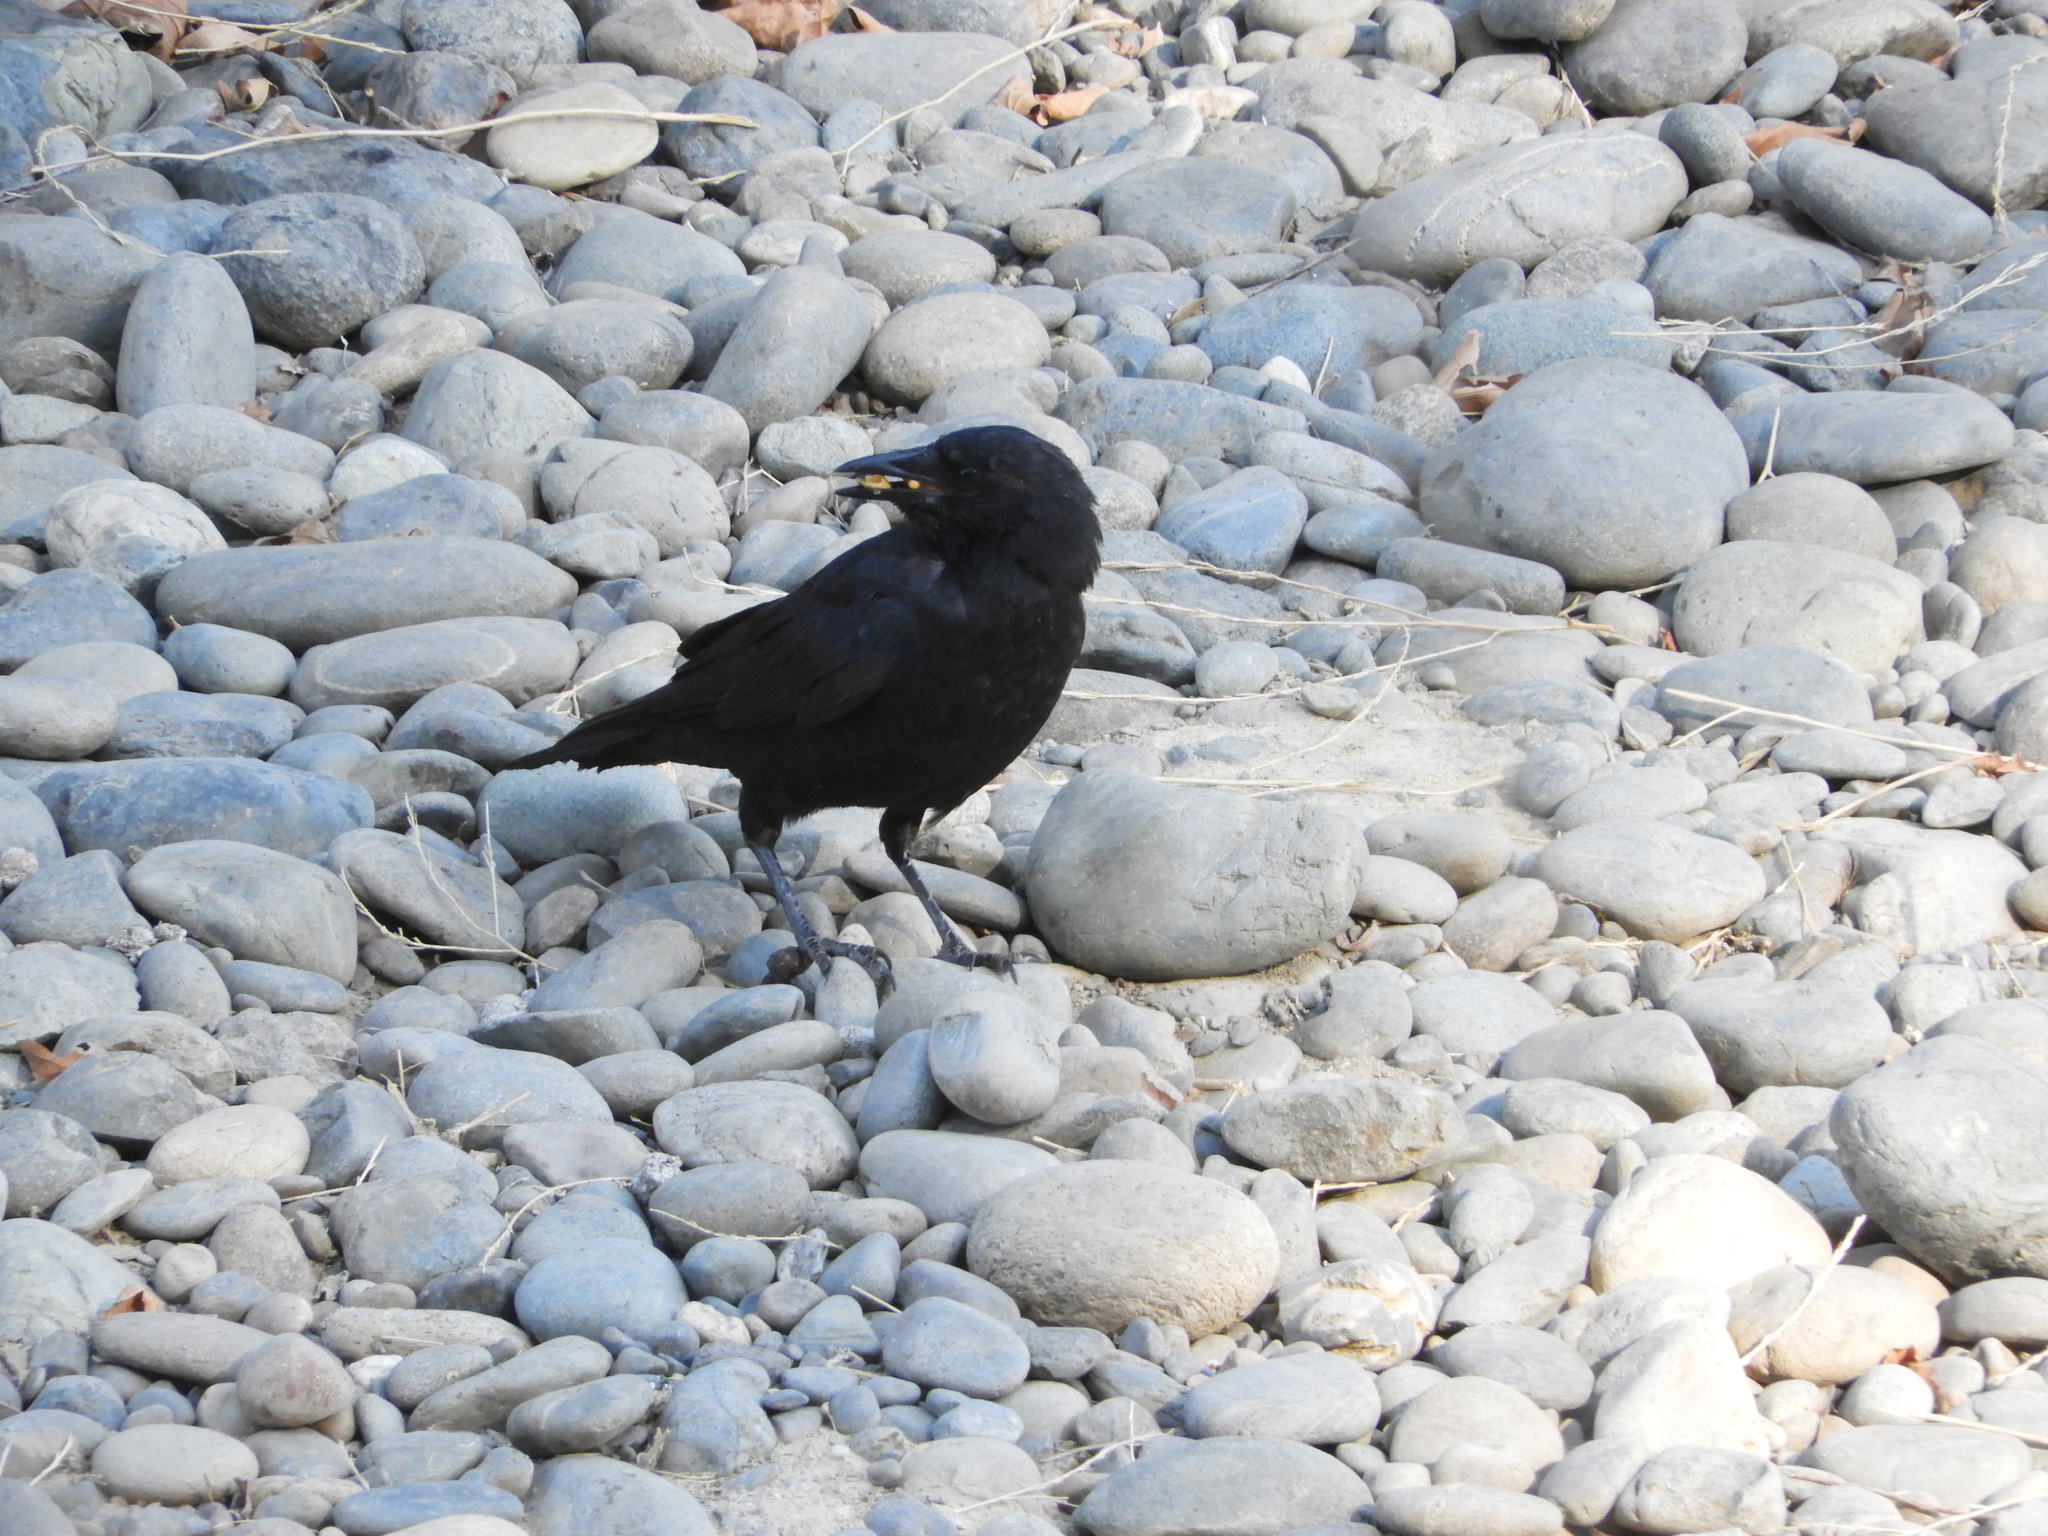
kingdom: Animalia
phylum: Chordata
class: Aves
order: Passeriformes
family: Corvidae
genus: Corvus
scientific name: Corvus brachyrhynchos
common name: American crow
